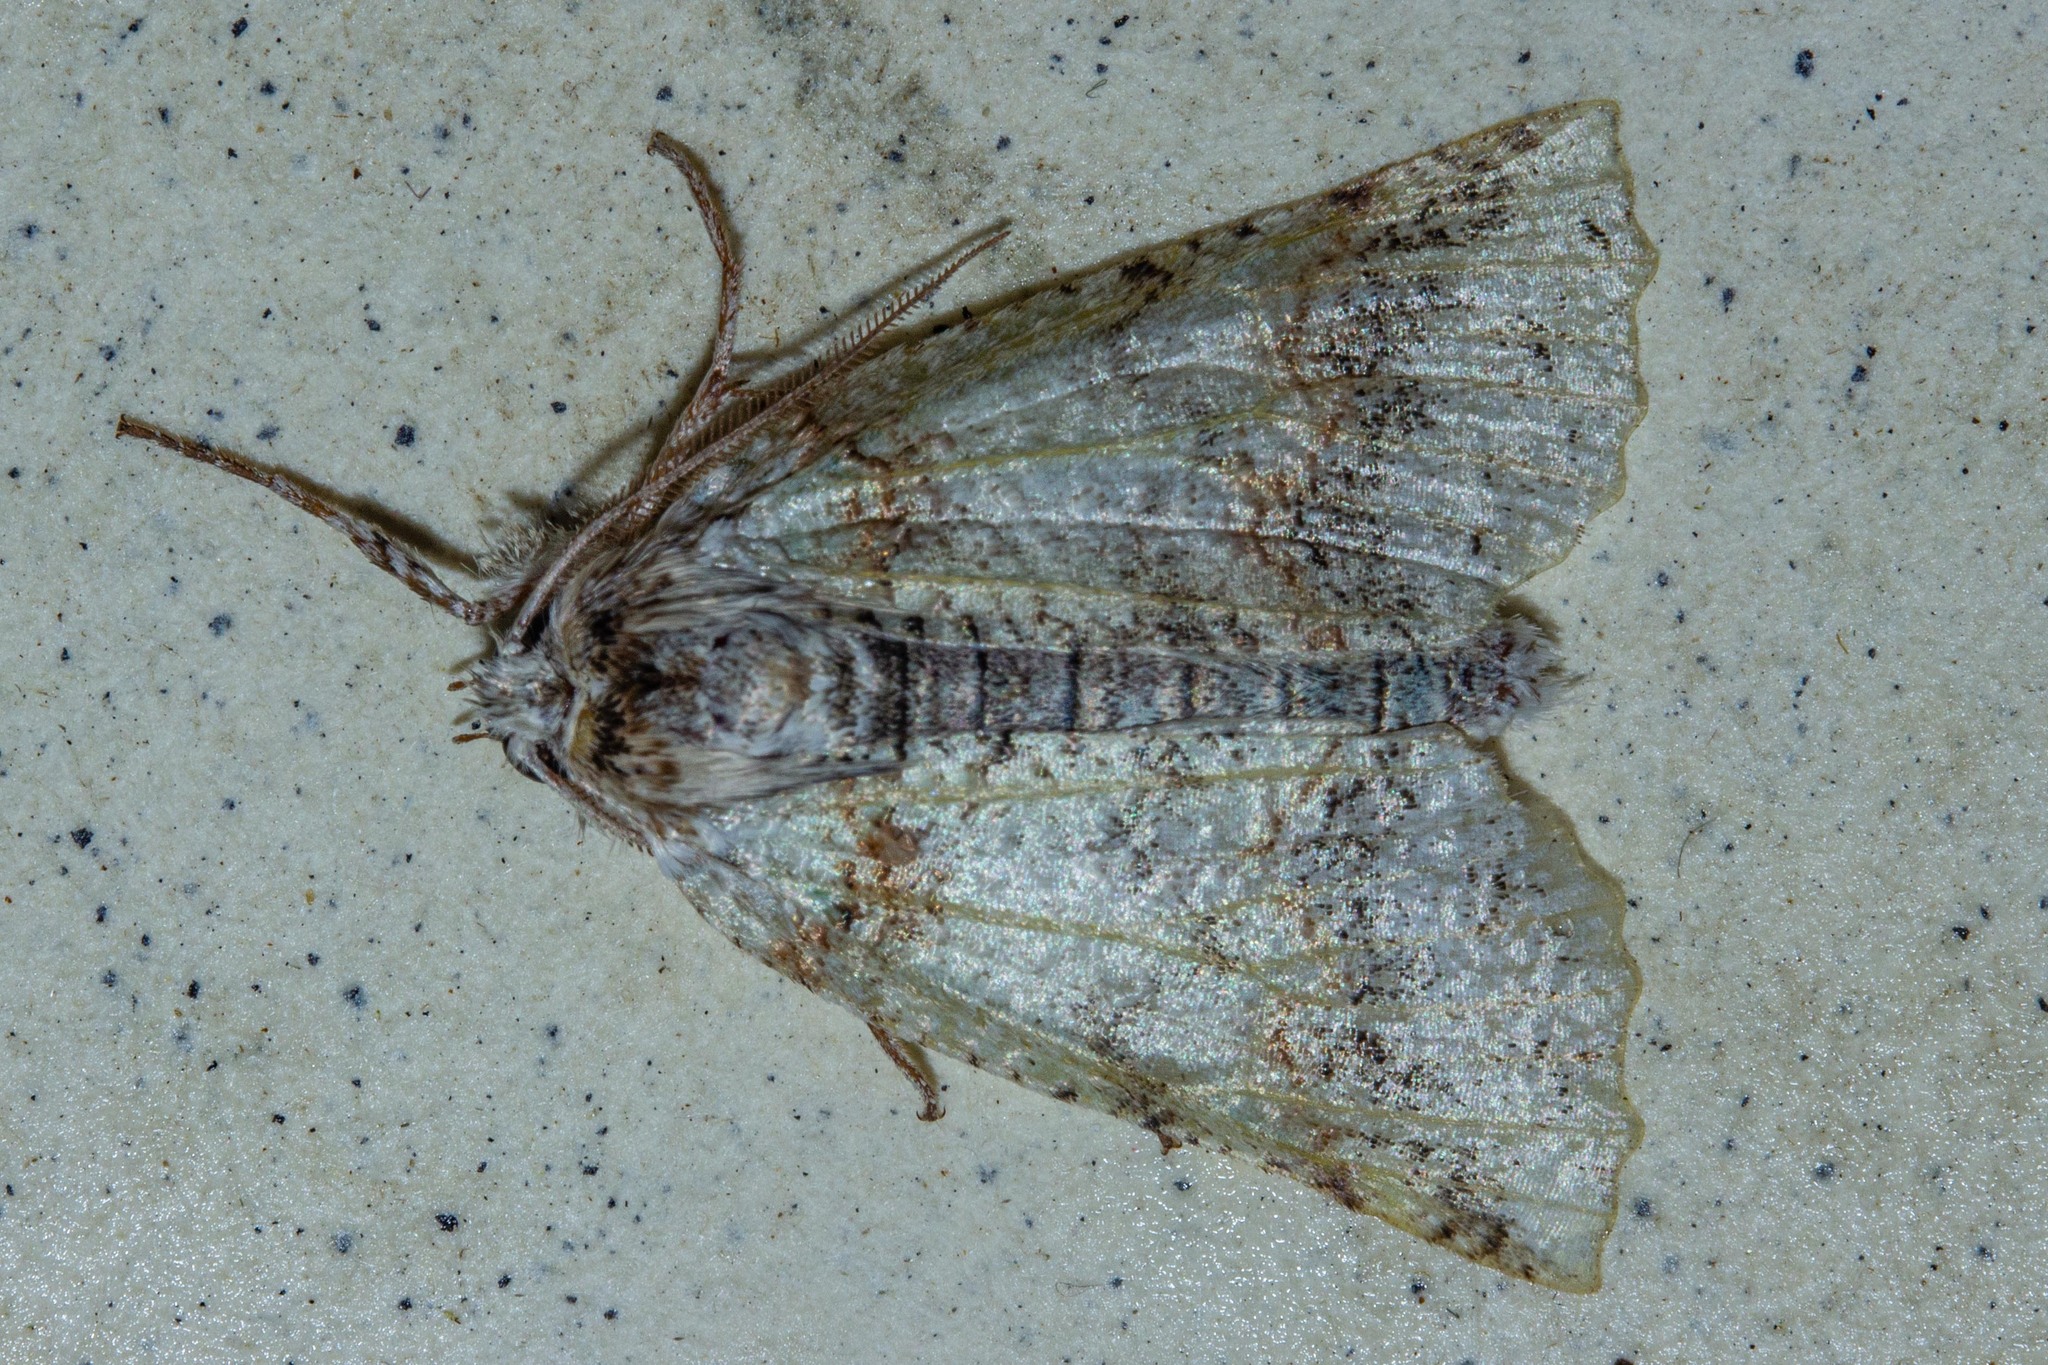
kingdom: Animalia
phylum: Arthropoda
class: Insecta
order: Lepidoptera
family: Geometridae
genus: Declana
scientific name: Declana floccosa
